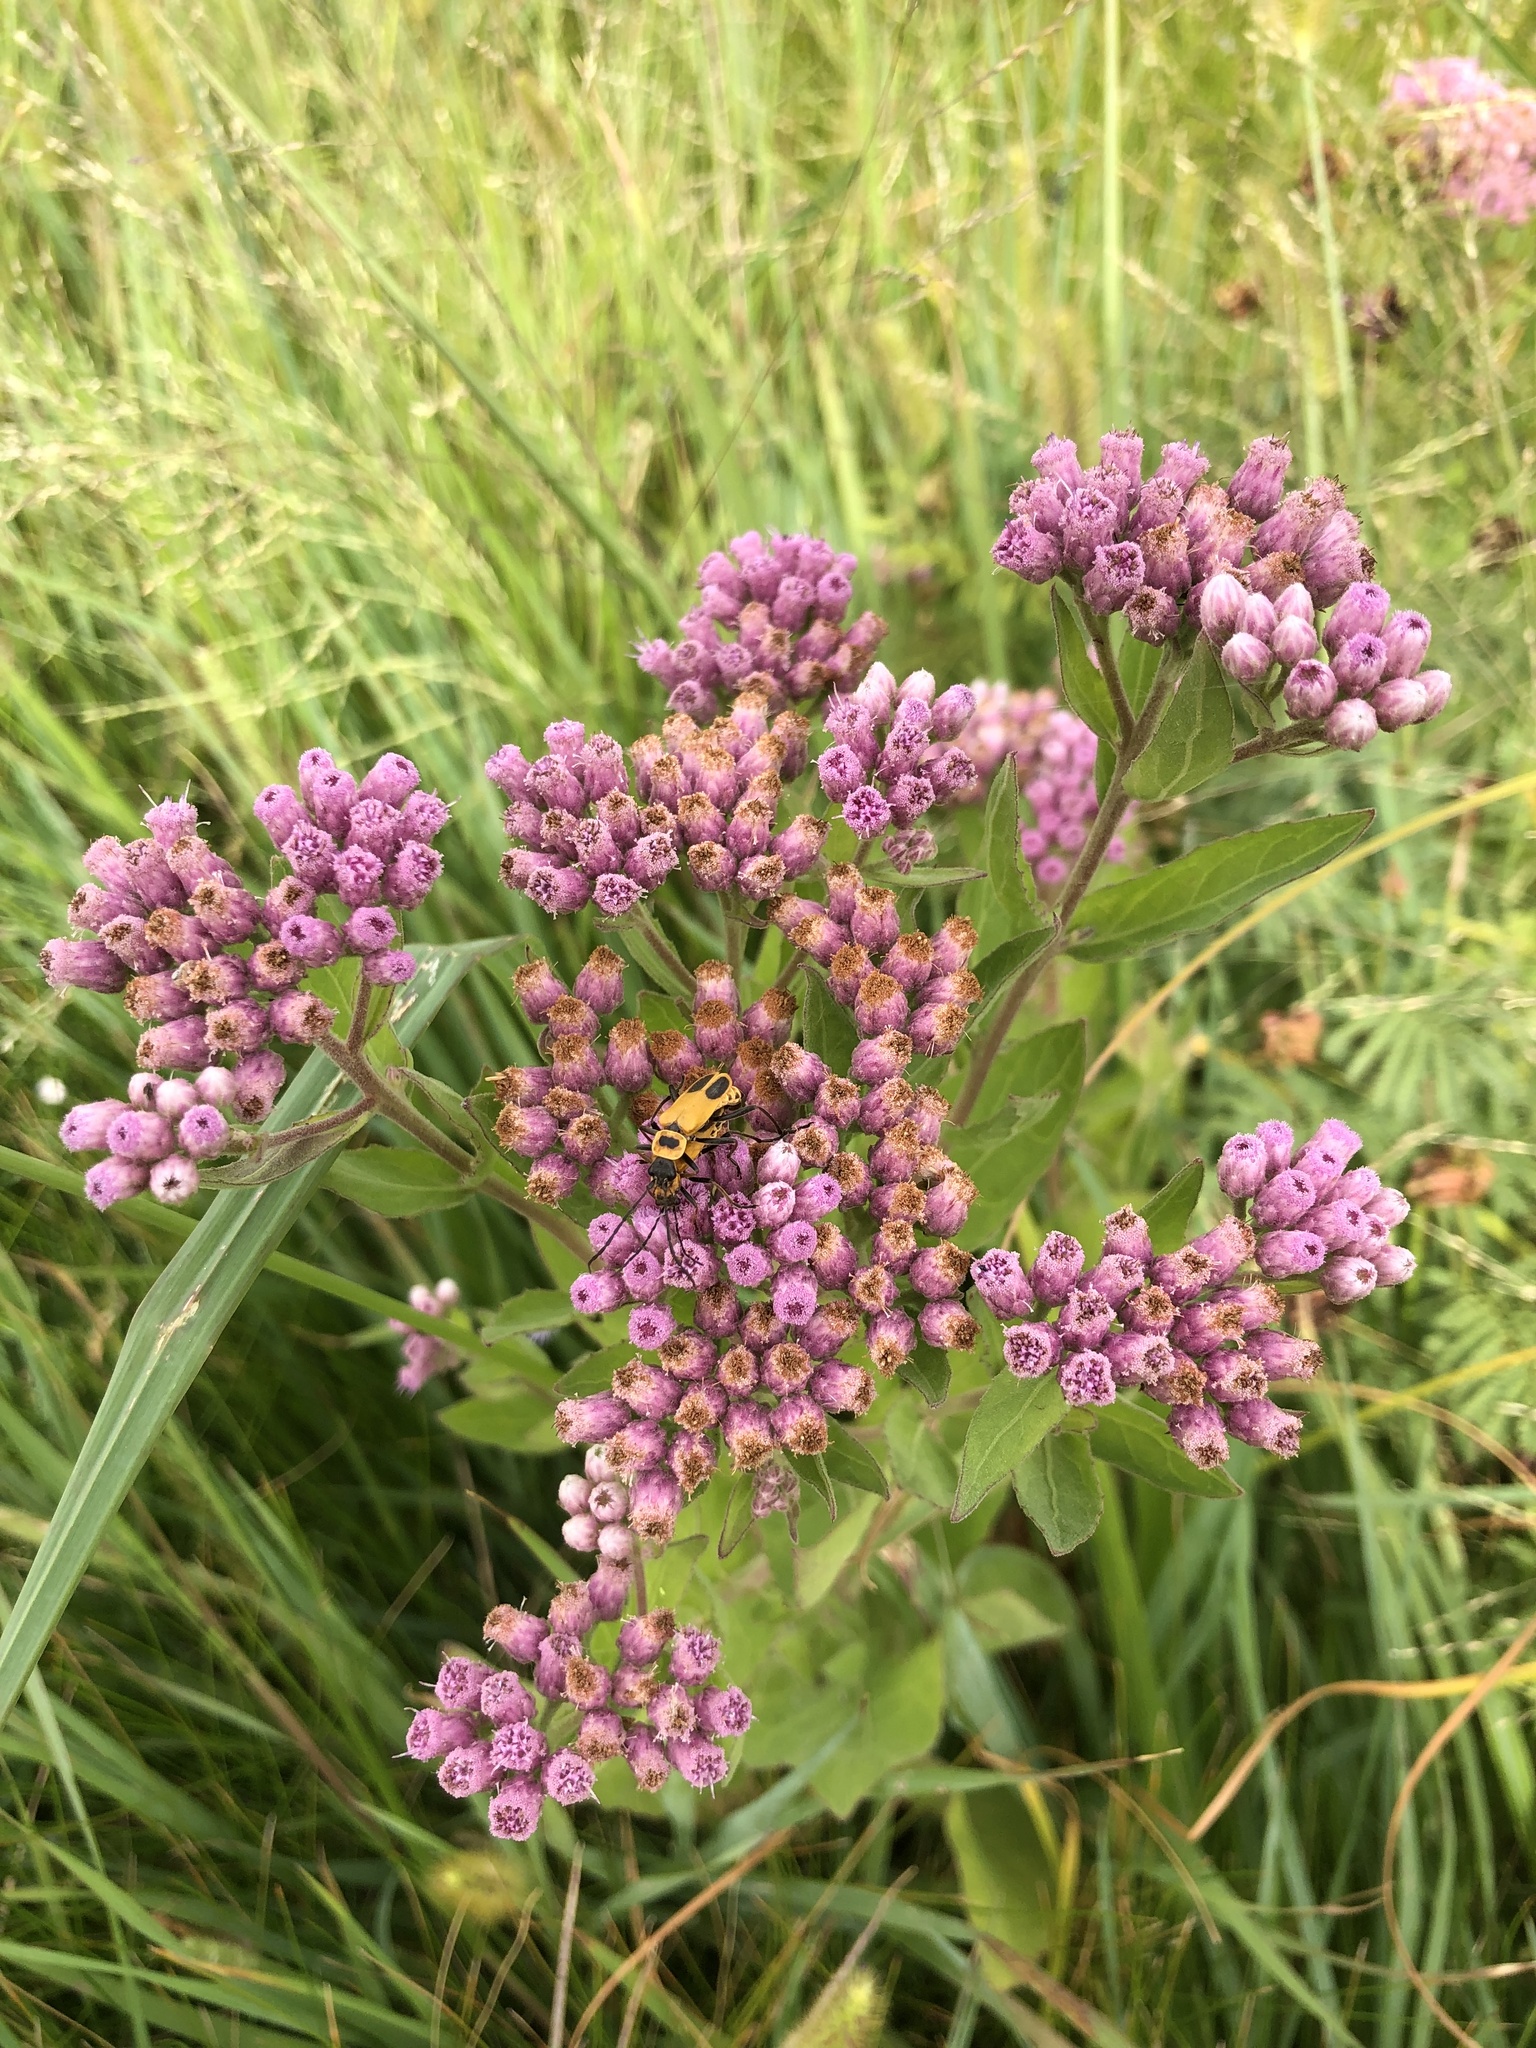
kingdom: Plantae
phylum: Tracheophyta
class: Magnoliopsida
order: Asterales
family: Asteraceae
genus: Pluchea
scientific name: Pluchea odorata
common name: Saltmarsh fleabane
